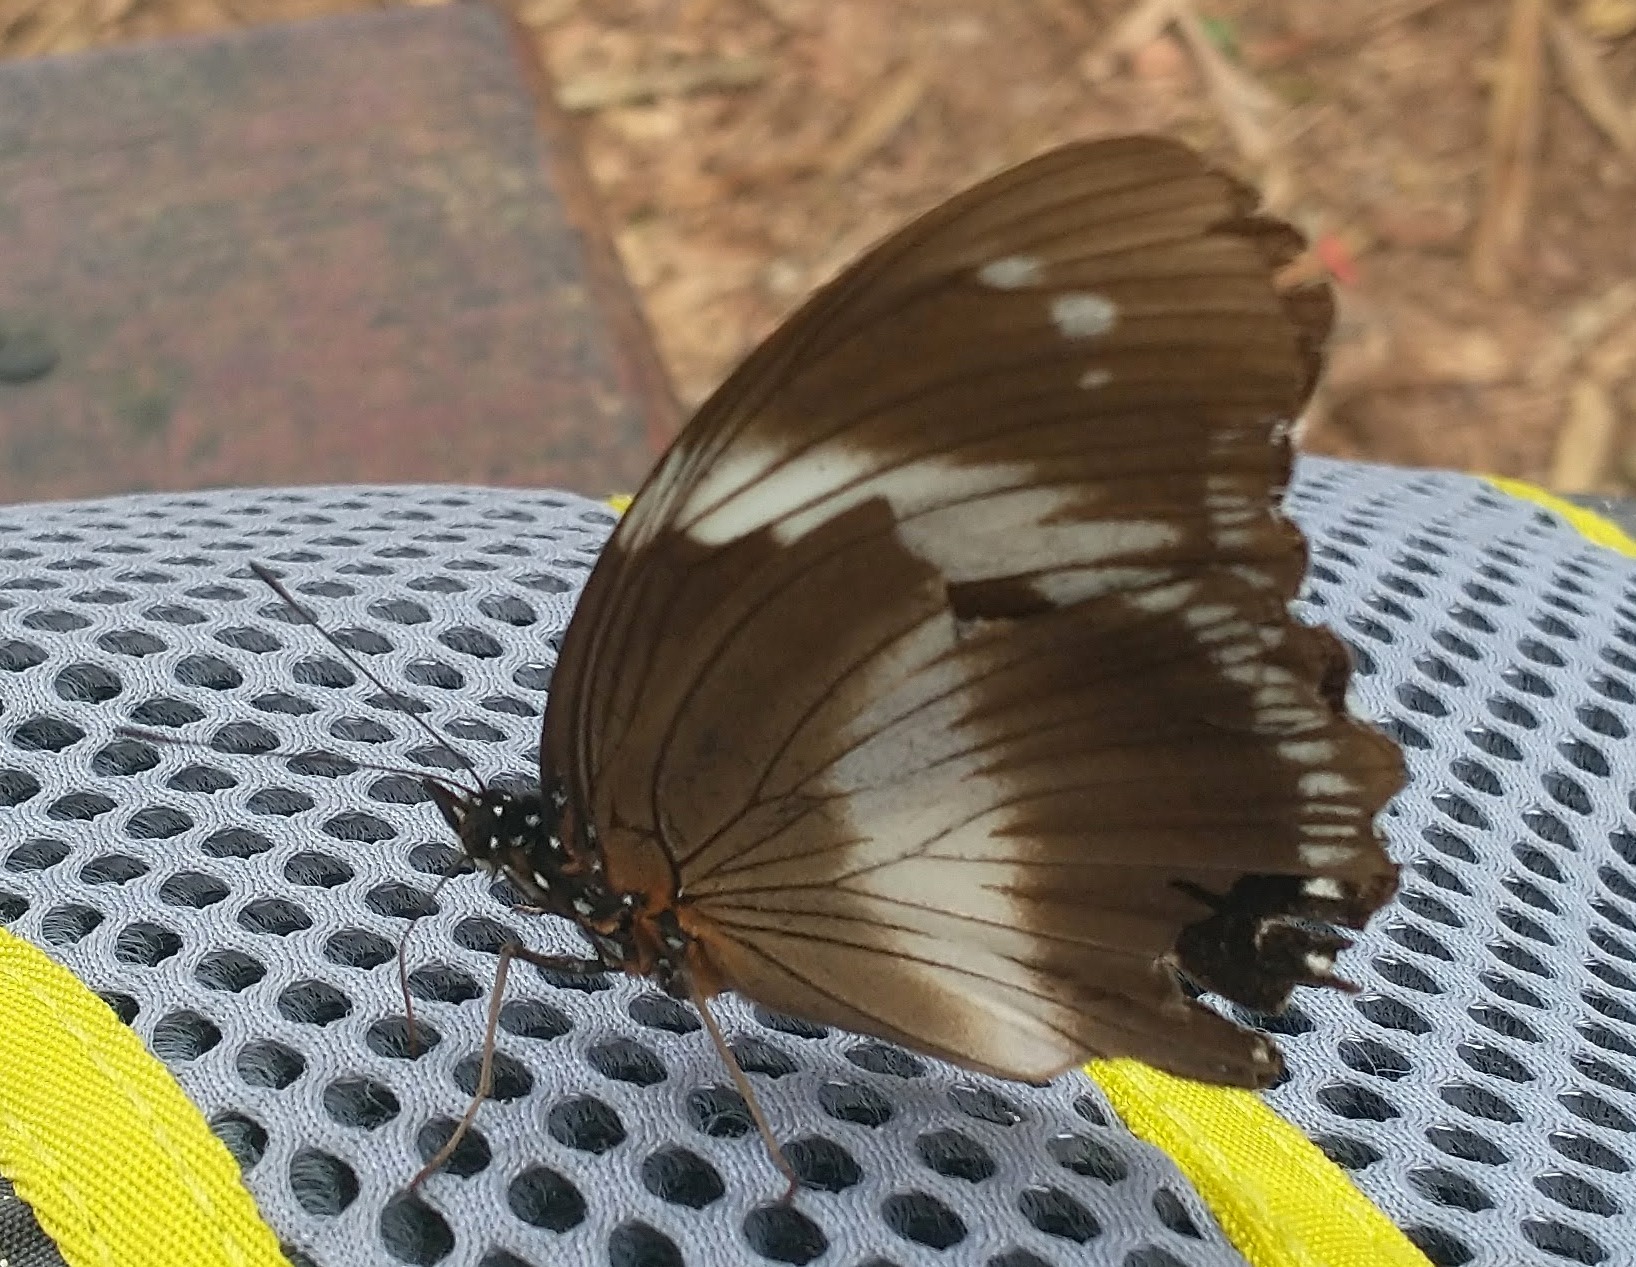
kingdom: Animalia
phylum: Arthropoda
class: Insecta
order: Lepidoptera
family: Nymphalidae
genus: Hypolimnas
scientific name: Hypolimnas salmacis
